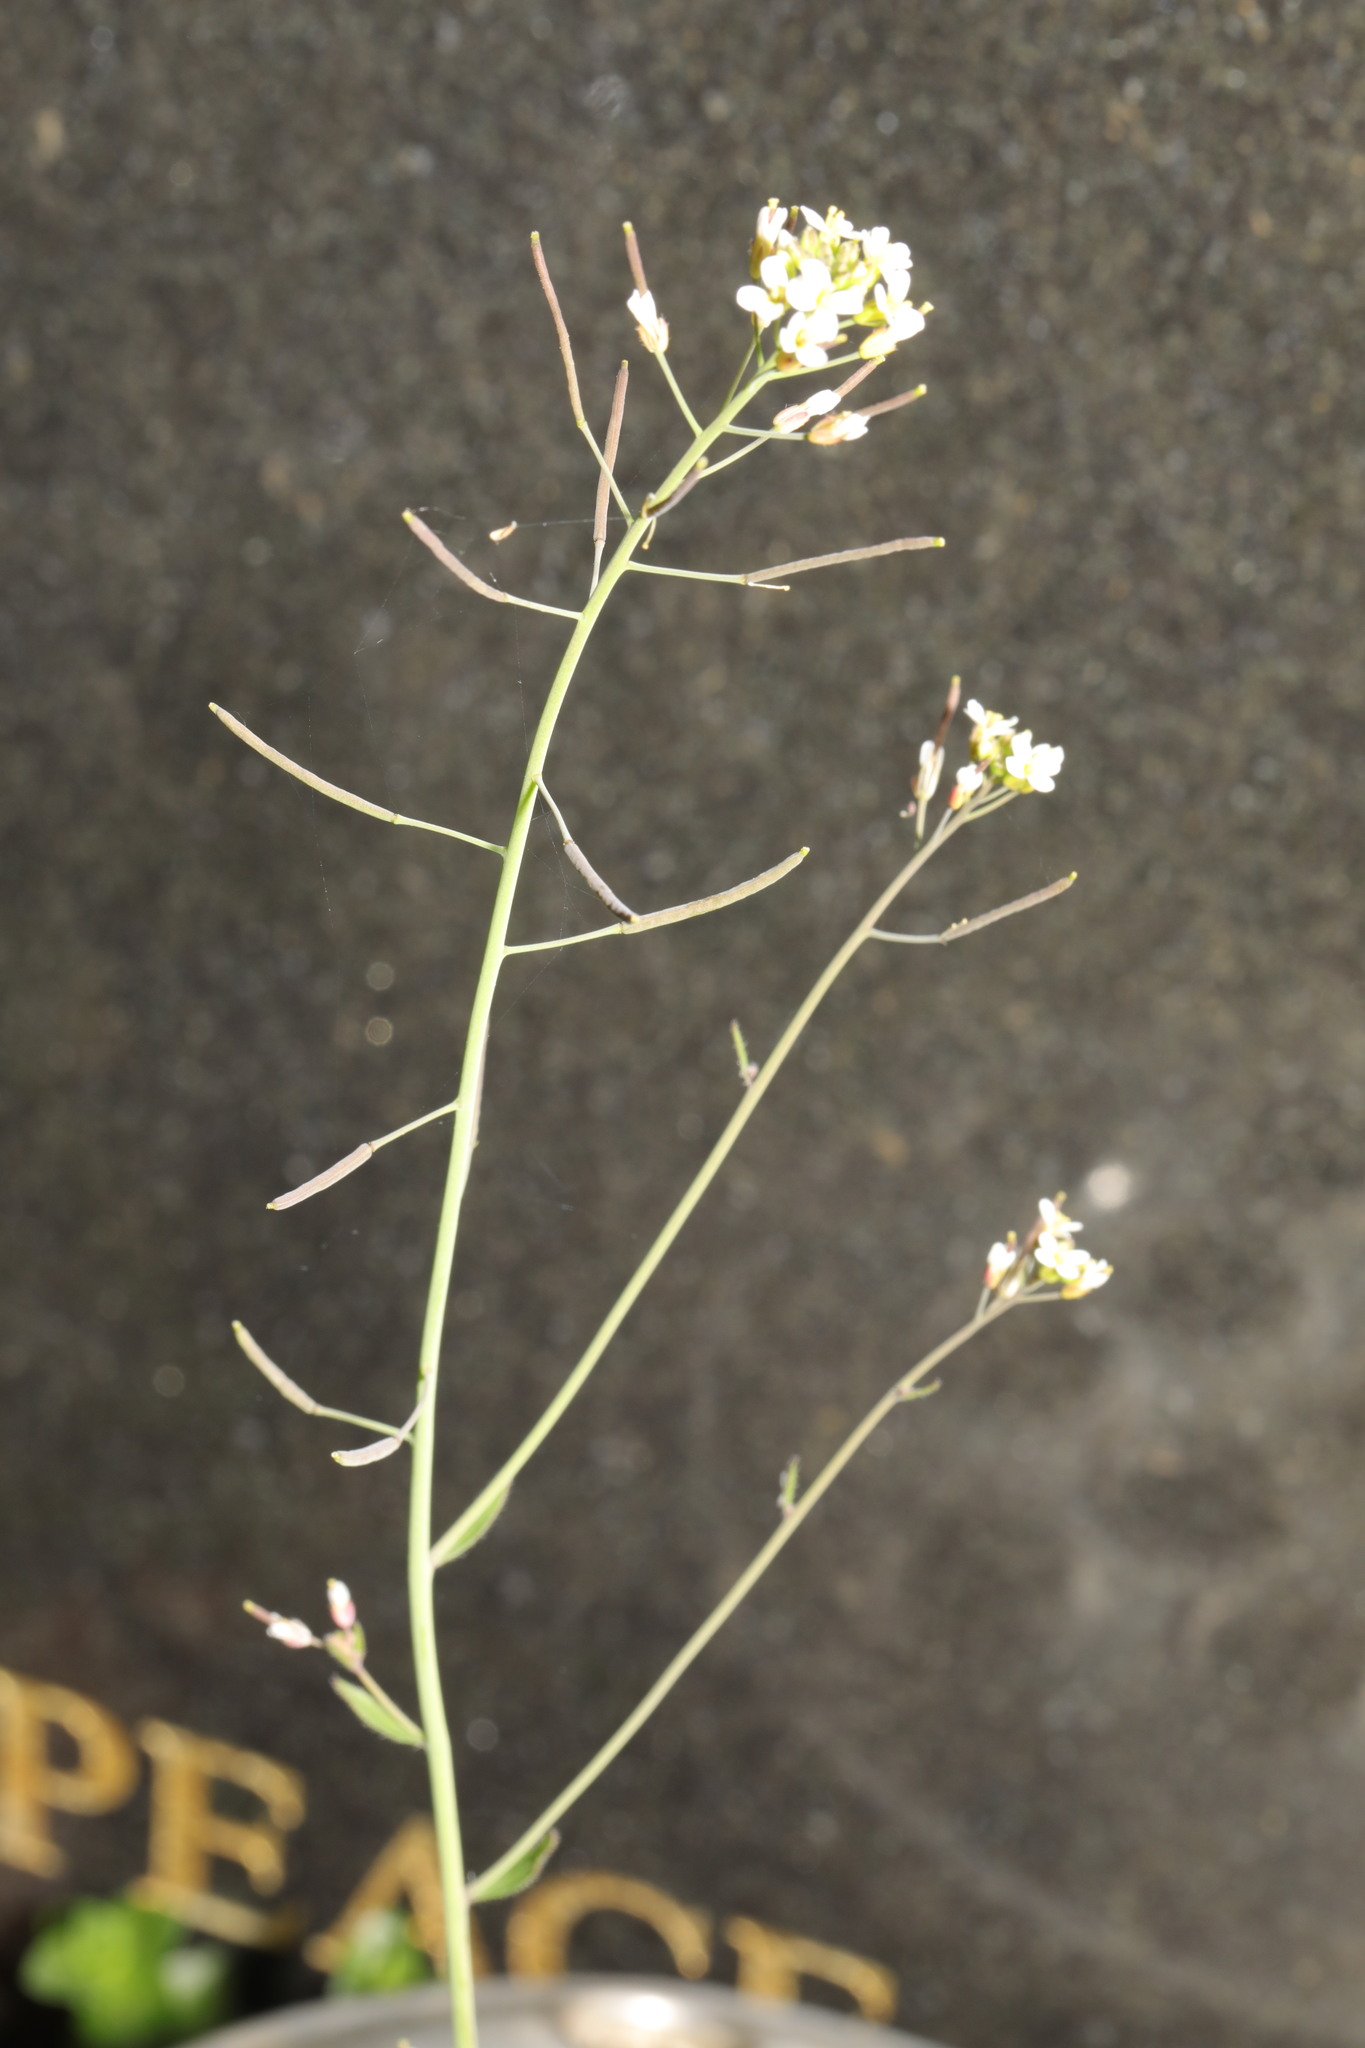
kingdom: Plantae
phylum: Tracheophyta
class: Magnoliopsida
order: Brassicales
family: Brassicaceae
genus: Arabidopsis
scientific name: Arabidopsis thaliana
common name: Thale cress
